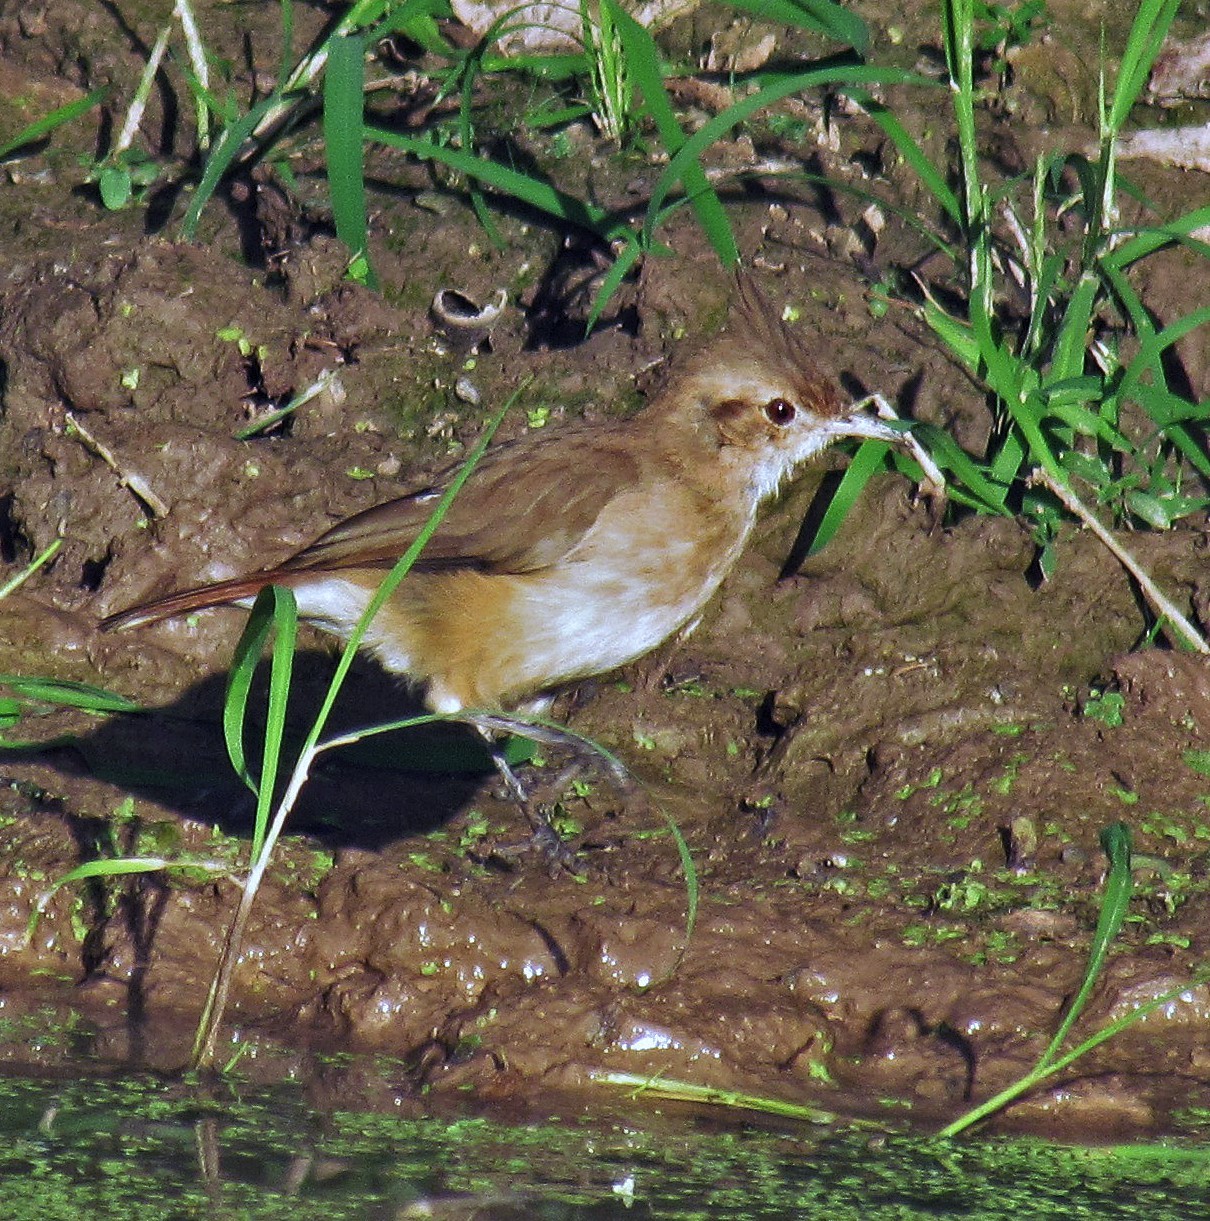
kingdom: Animalia
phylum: Chordata
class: Aves
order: Passeriformes
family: Furnariidae
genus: Furnarius
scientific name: Furnarius cristatus
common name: Crested hornero
